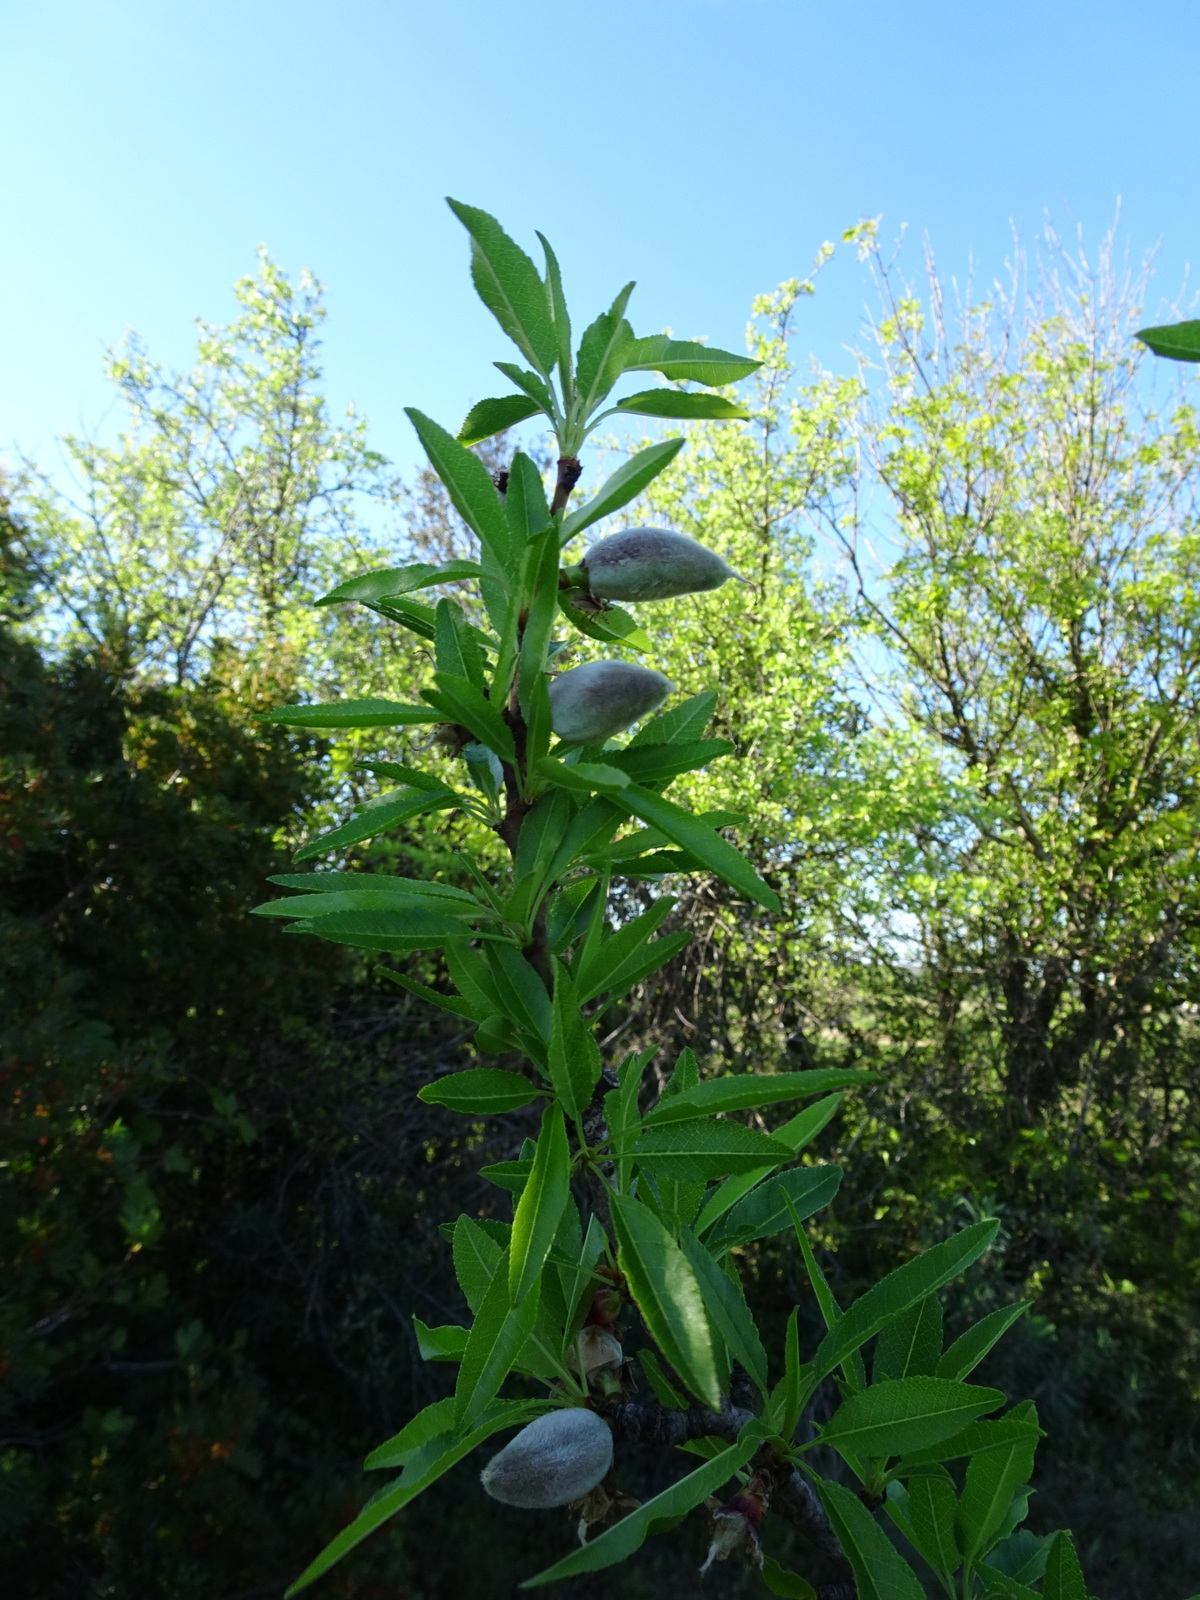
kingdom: Plantae
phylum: Tracheophyta
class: Magnoliopsida
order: Rosales
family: Rosaceae
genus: Prunus
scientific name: Prunus amygdalus
